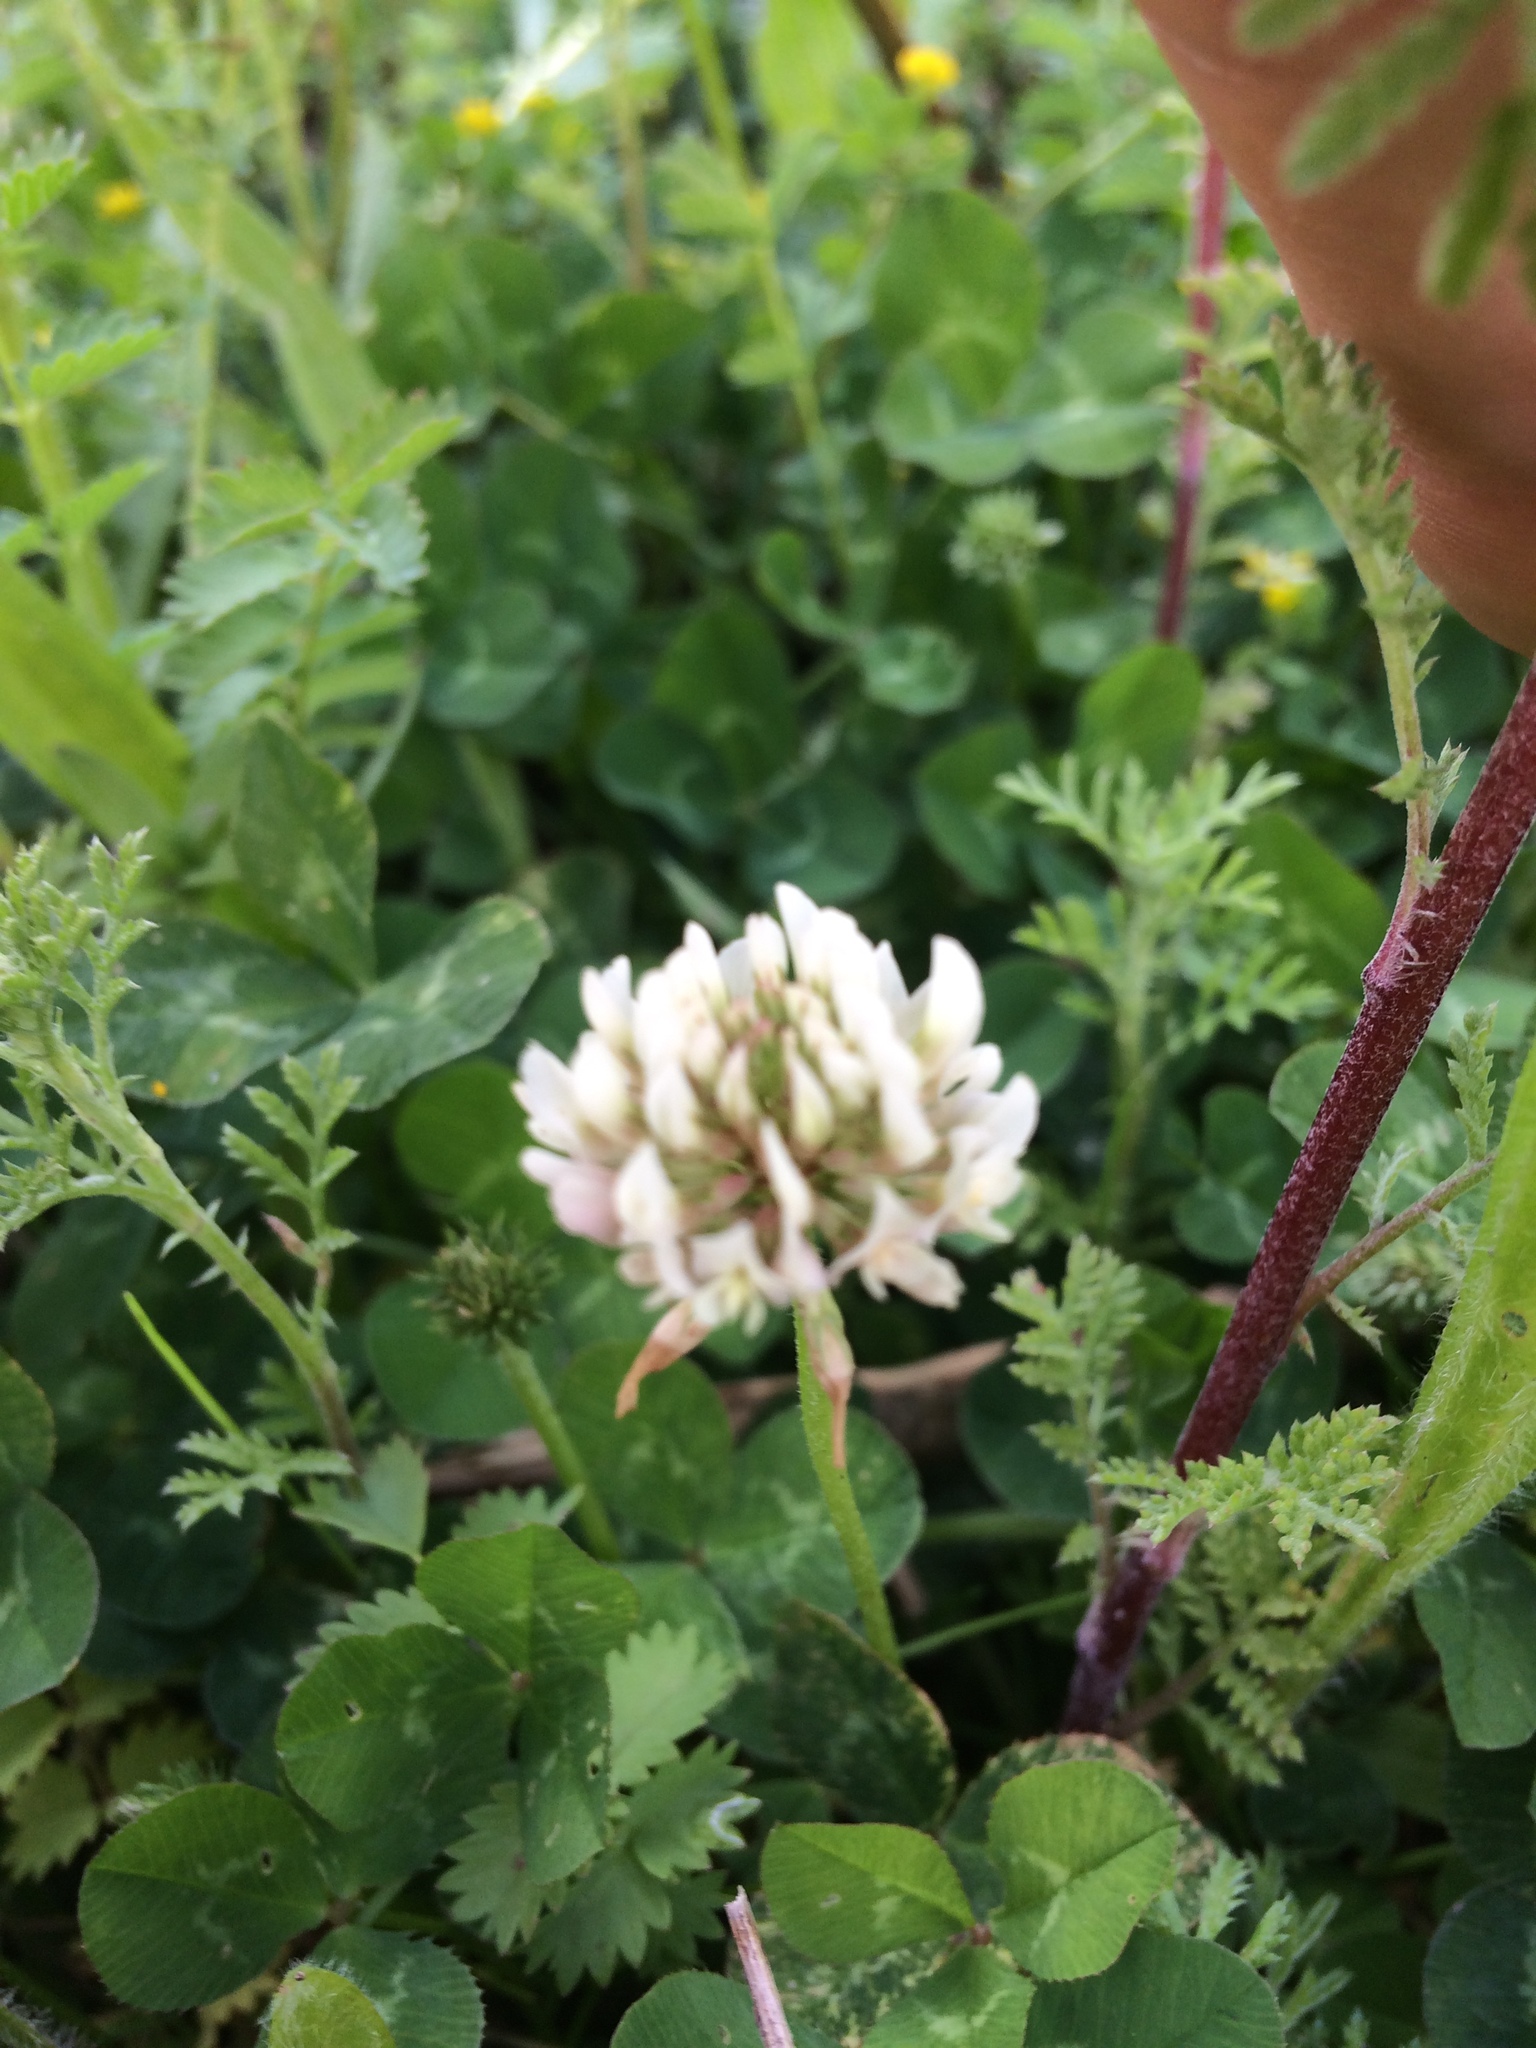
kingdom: Plantae
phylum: Tracheophyta
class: Magnoliopsida
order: Fabales
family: Fabaceae
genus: Trifolium
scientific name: Trifolium repens
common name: White clover
